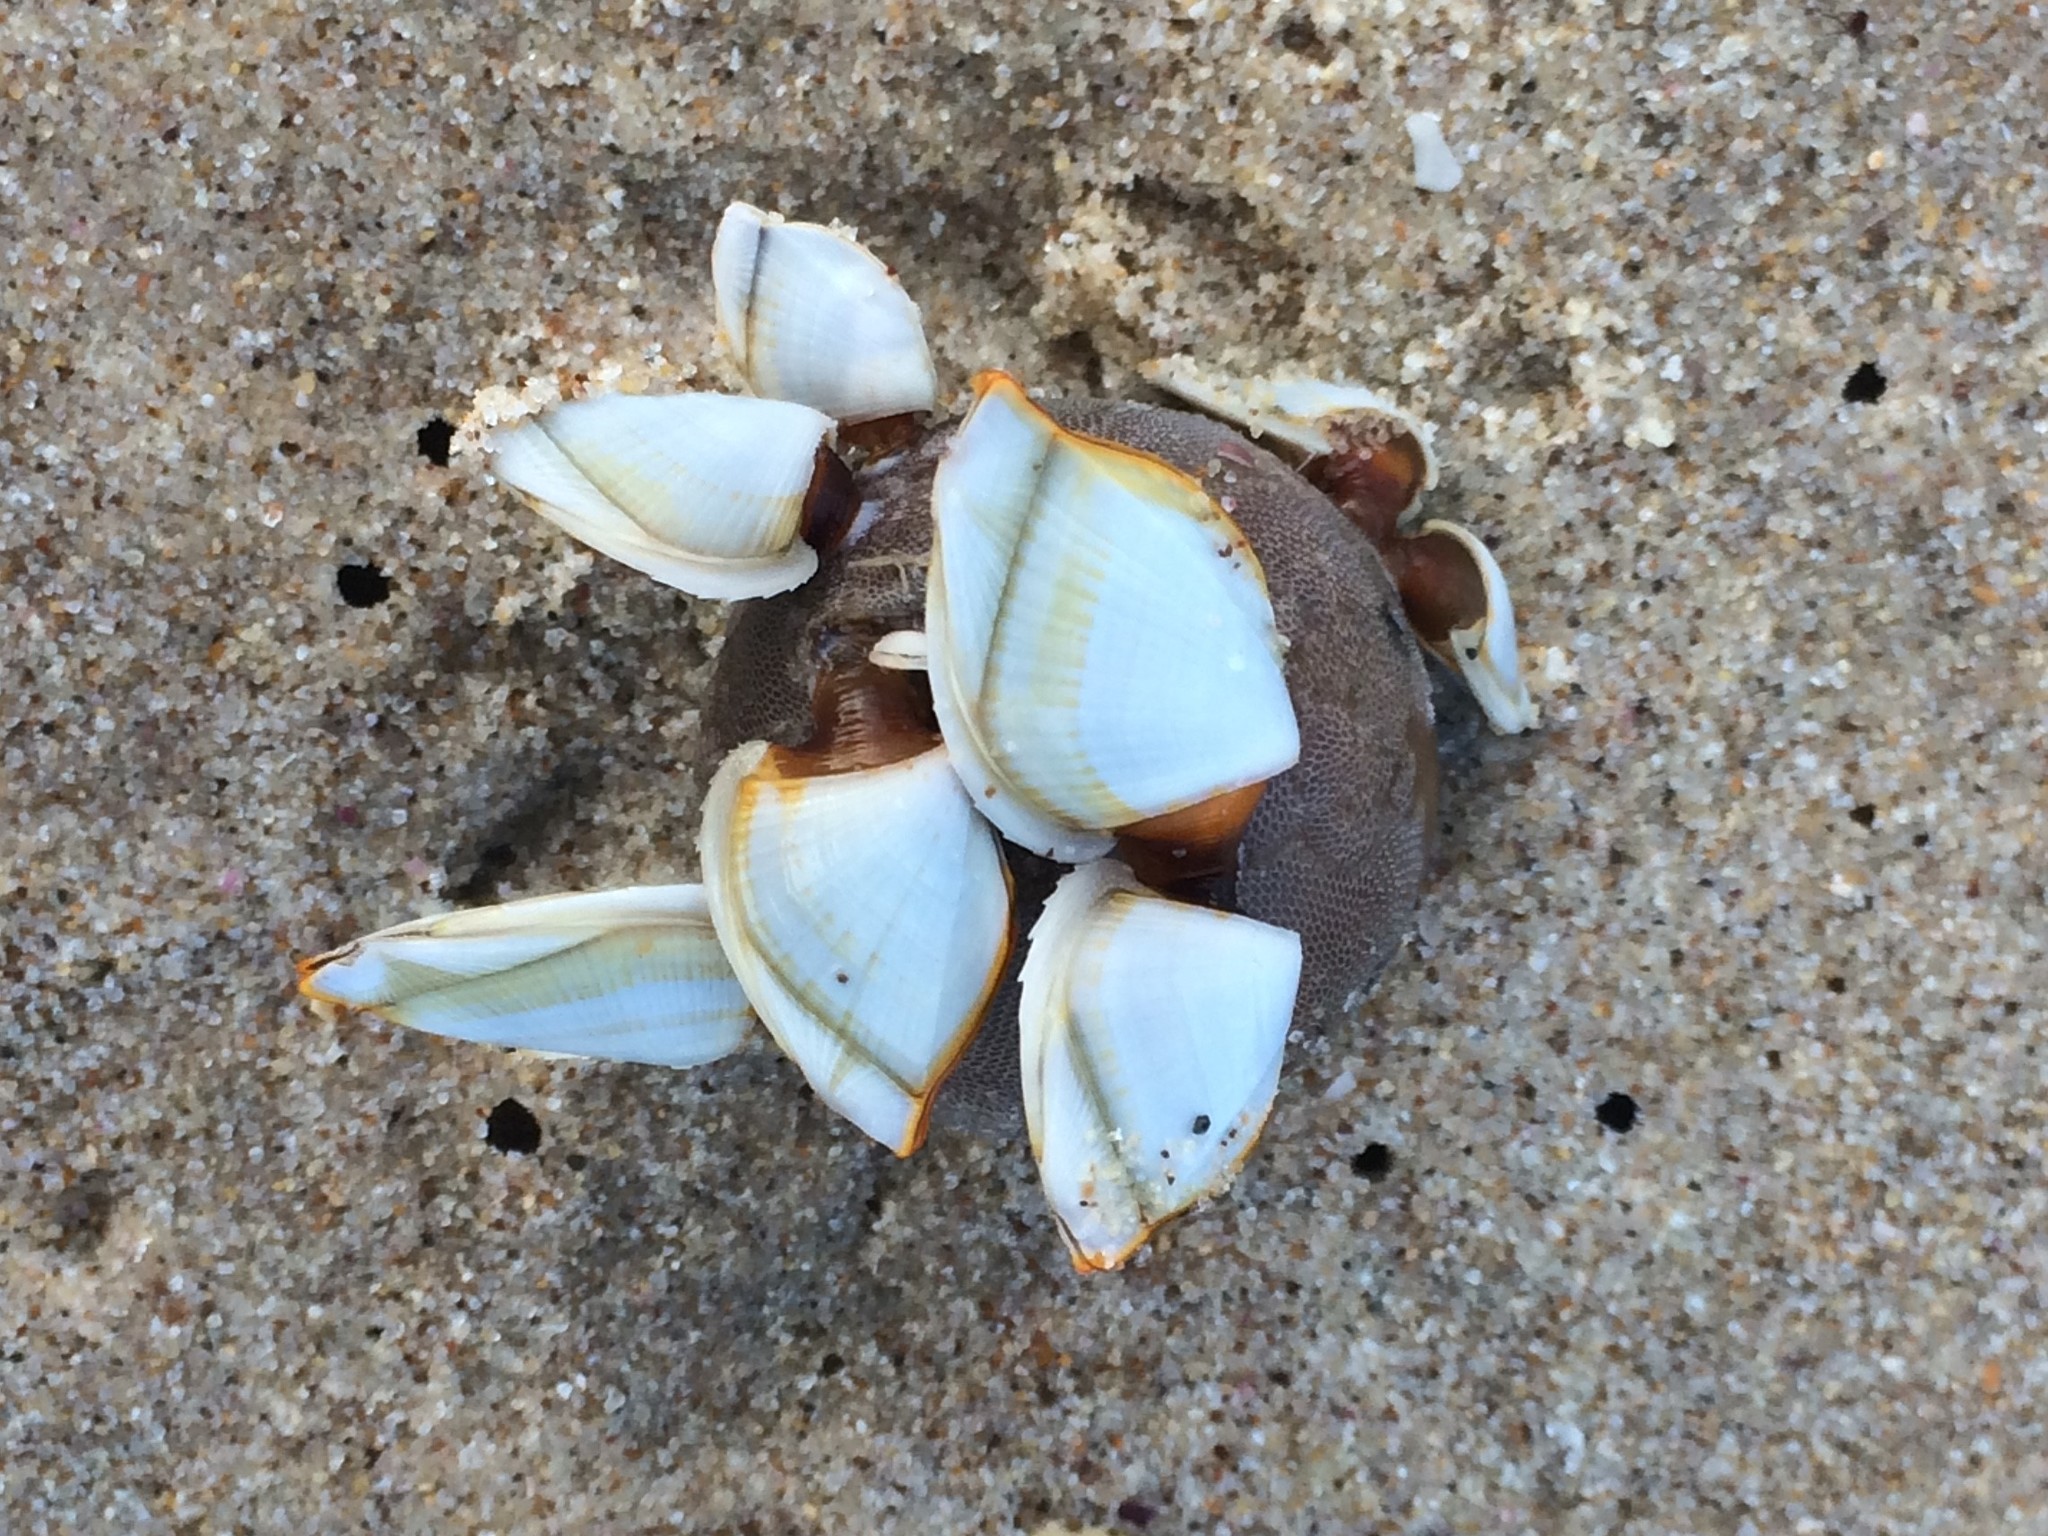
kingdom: Animalia
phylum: Arthropoda
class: Maxillopoda
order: Pedunculata
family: Lepadidae
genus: Lepas
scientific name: Lepas anserifera
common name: Goose barnacle
